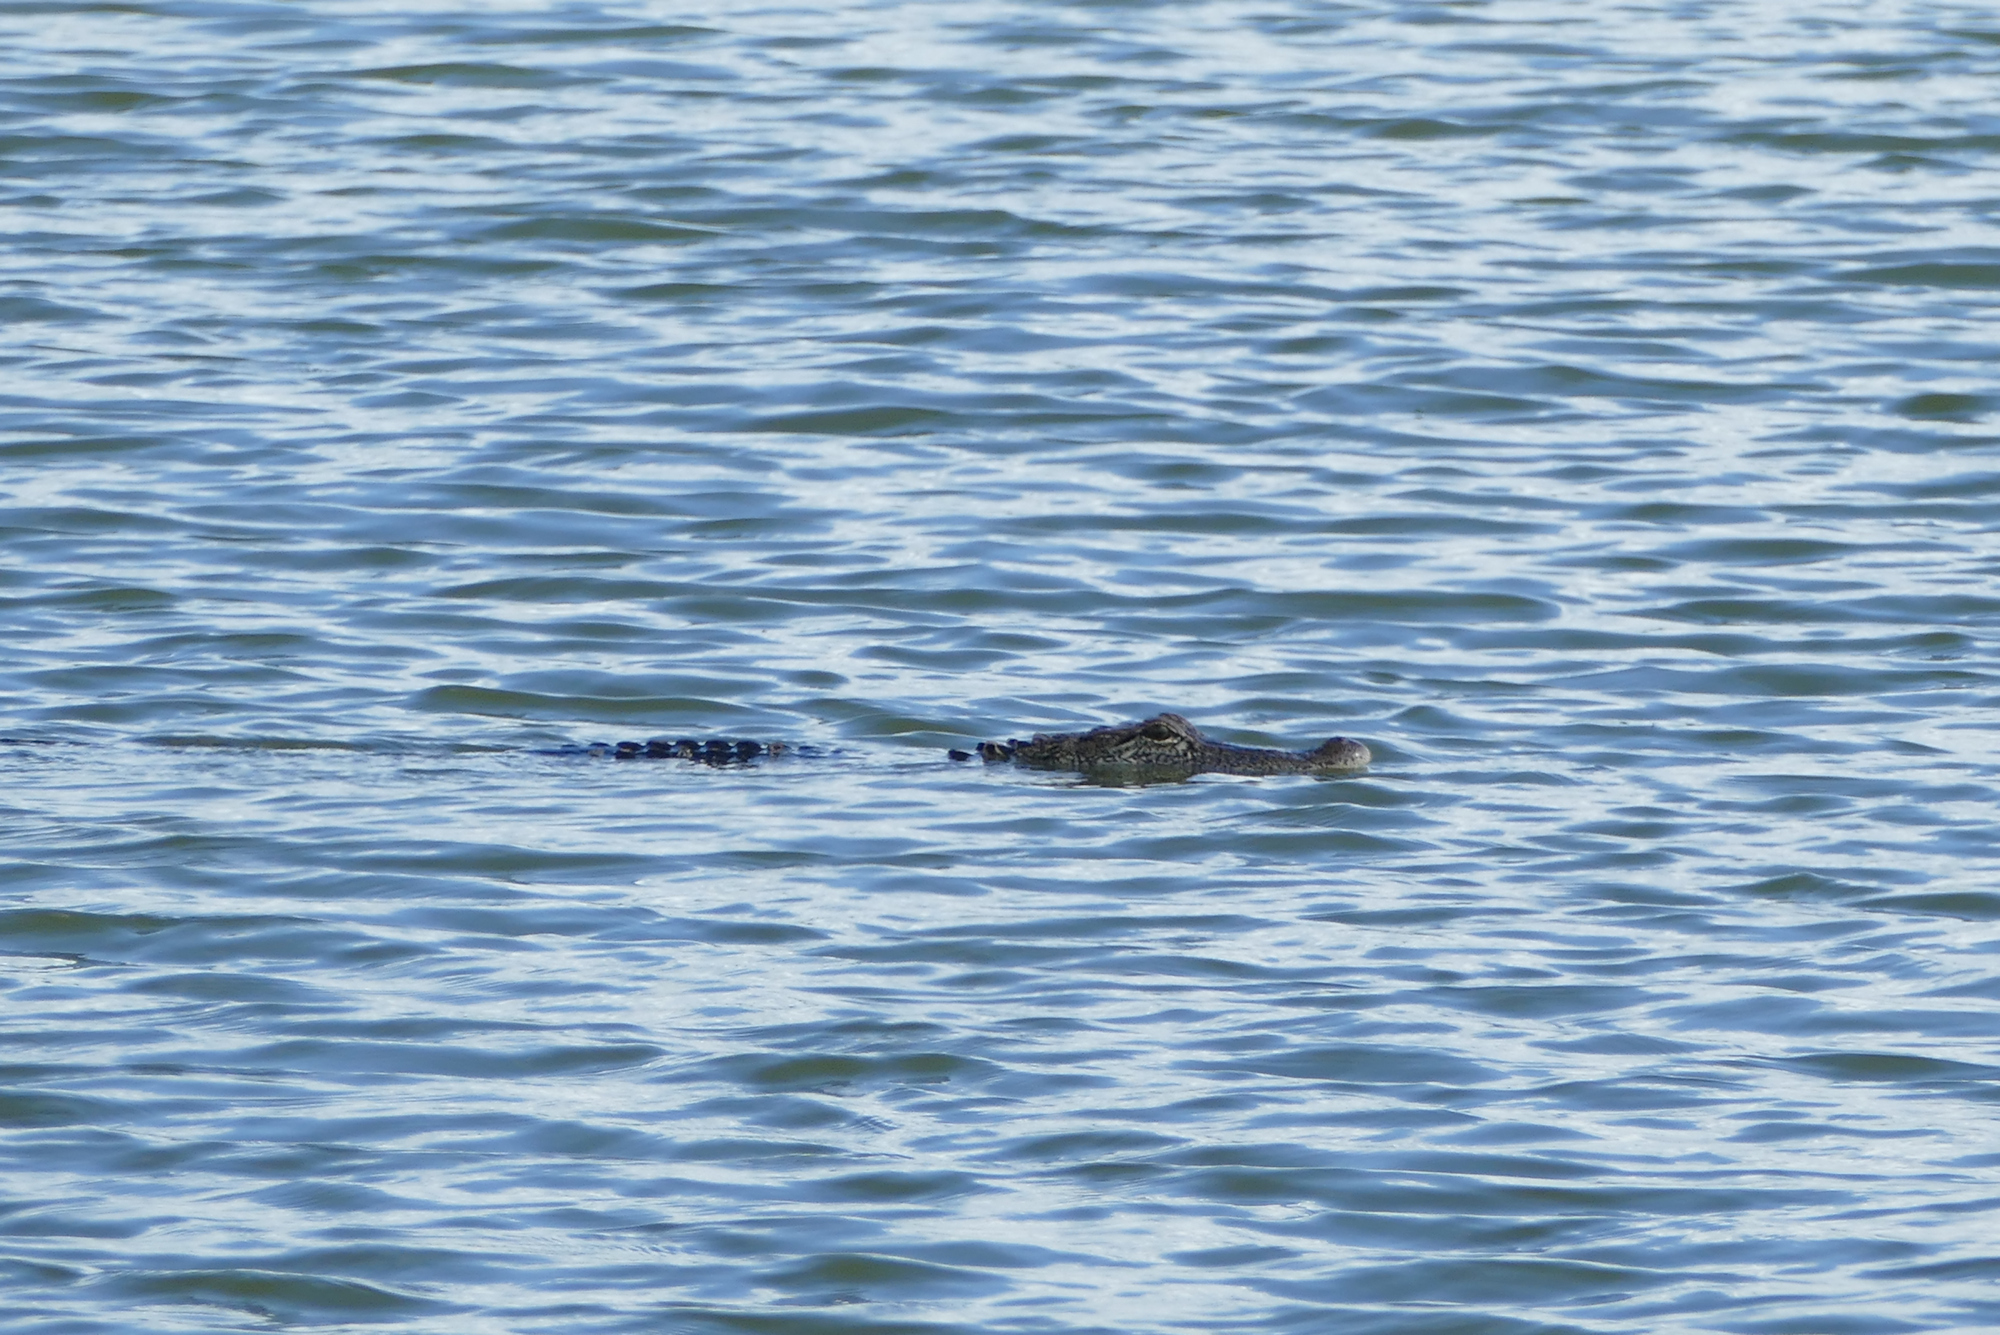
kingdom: Animalia
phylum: Chordata
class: Crocodylia
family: Alligatoridae
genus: Alligator
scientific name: Alligator mississippiensis
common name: American alligator
